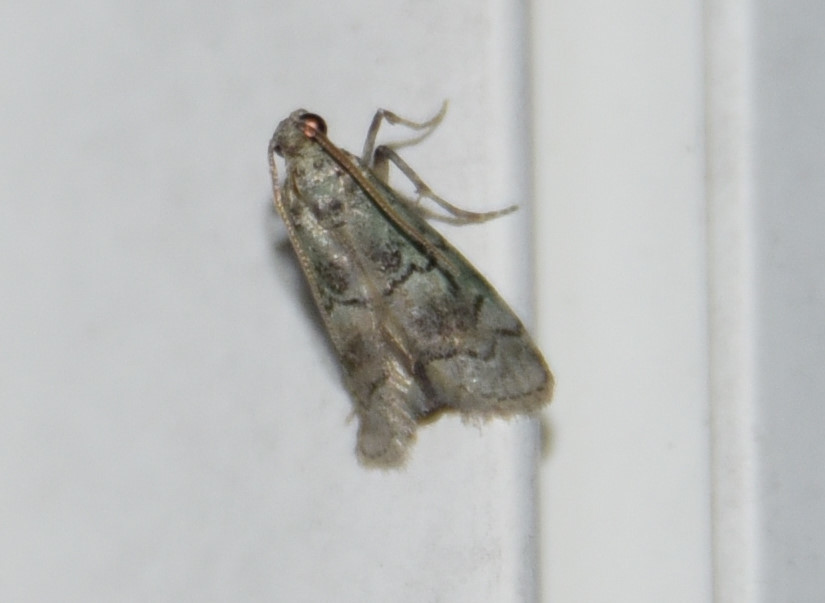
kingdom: Animalia
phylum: Arthropoda
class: Insecta
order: Lepidoptera
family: Pyralidae
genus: Cacotherapia
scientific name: Cacotherapia flexilinealis
